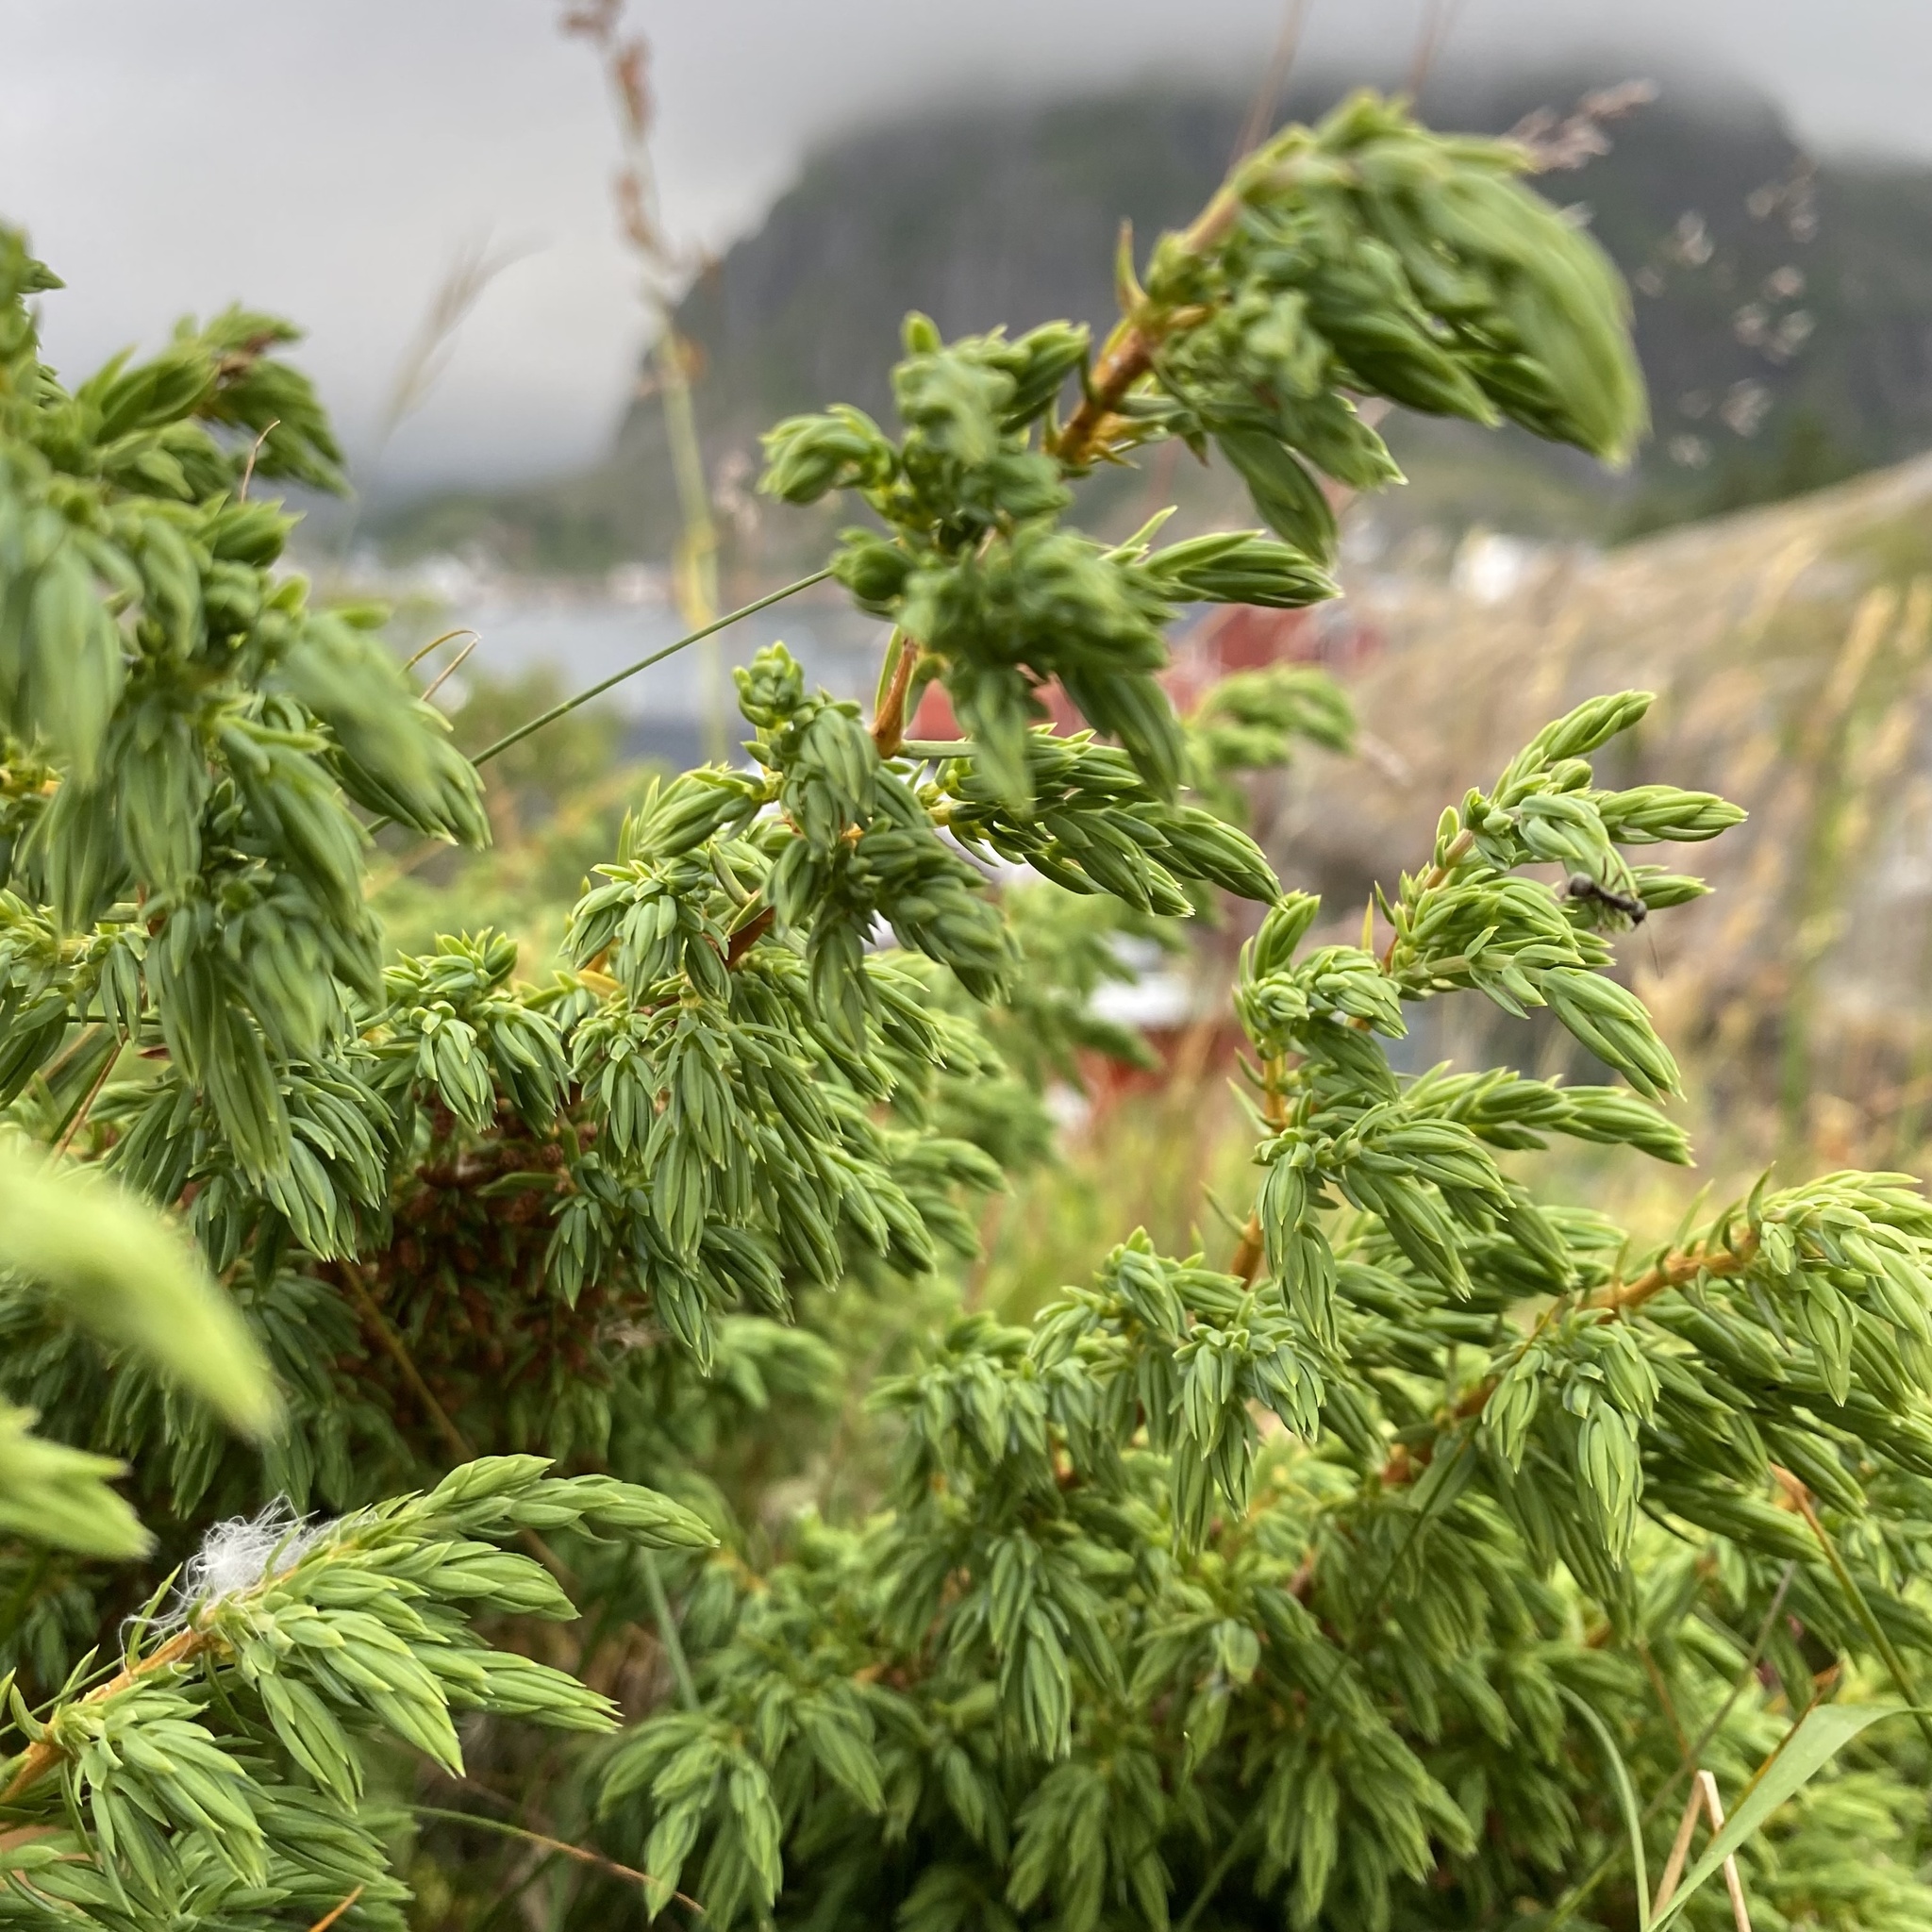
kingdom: Plantae
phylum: Tracheophyta
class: Pinopsida
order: Pinales
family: Cupressaceae
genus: Juniperus
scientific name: Juniperus communis
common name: Common juniper
